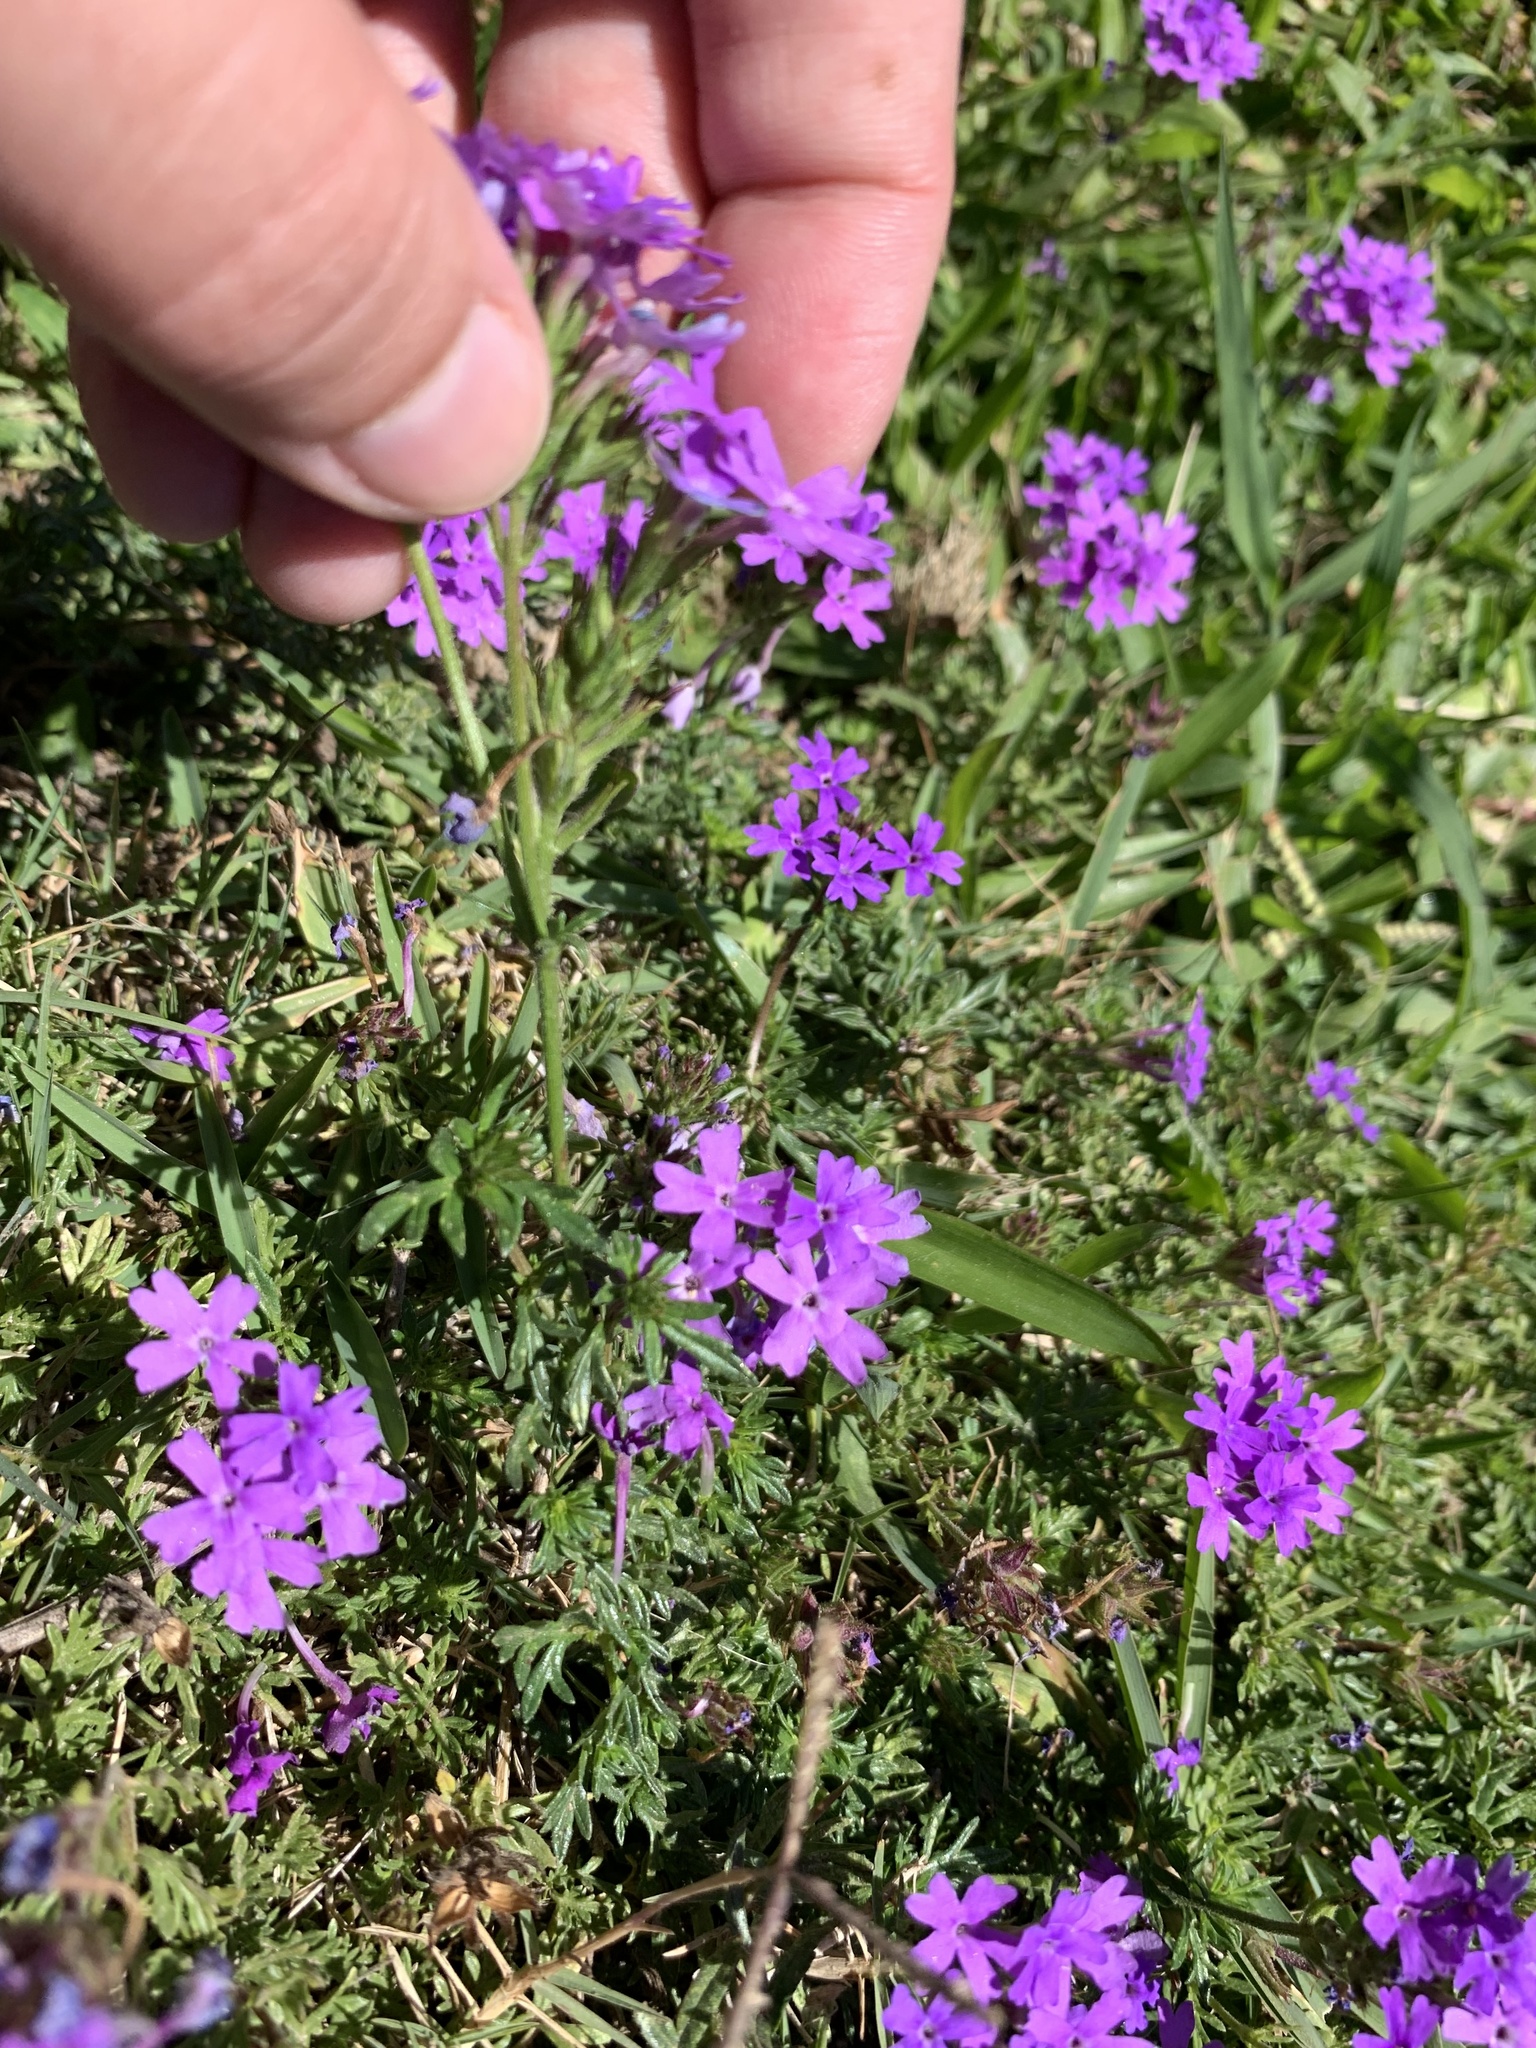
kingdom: Plantae
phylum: Tracheophyta
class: Magnoliopsida
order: Lamiales
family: Verbenaceae
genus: Verbena
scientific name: Verbena selloi
